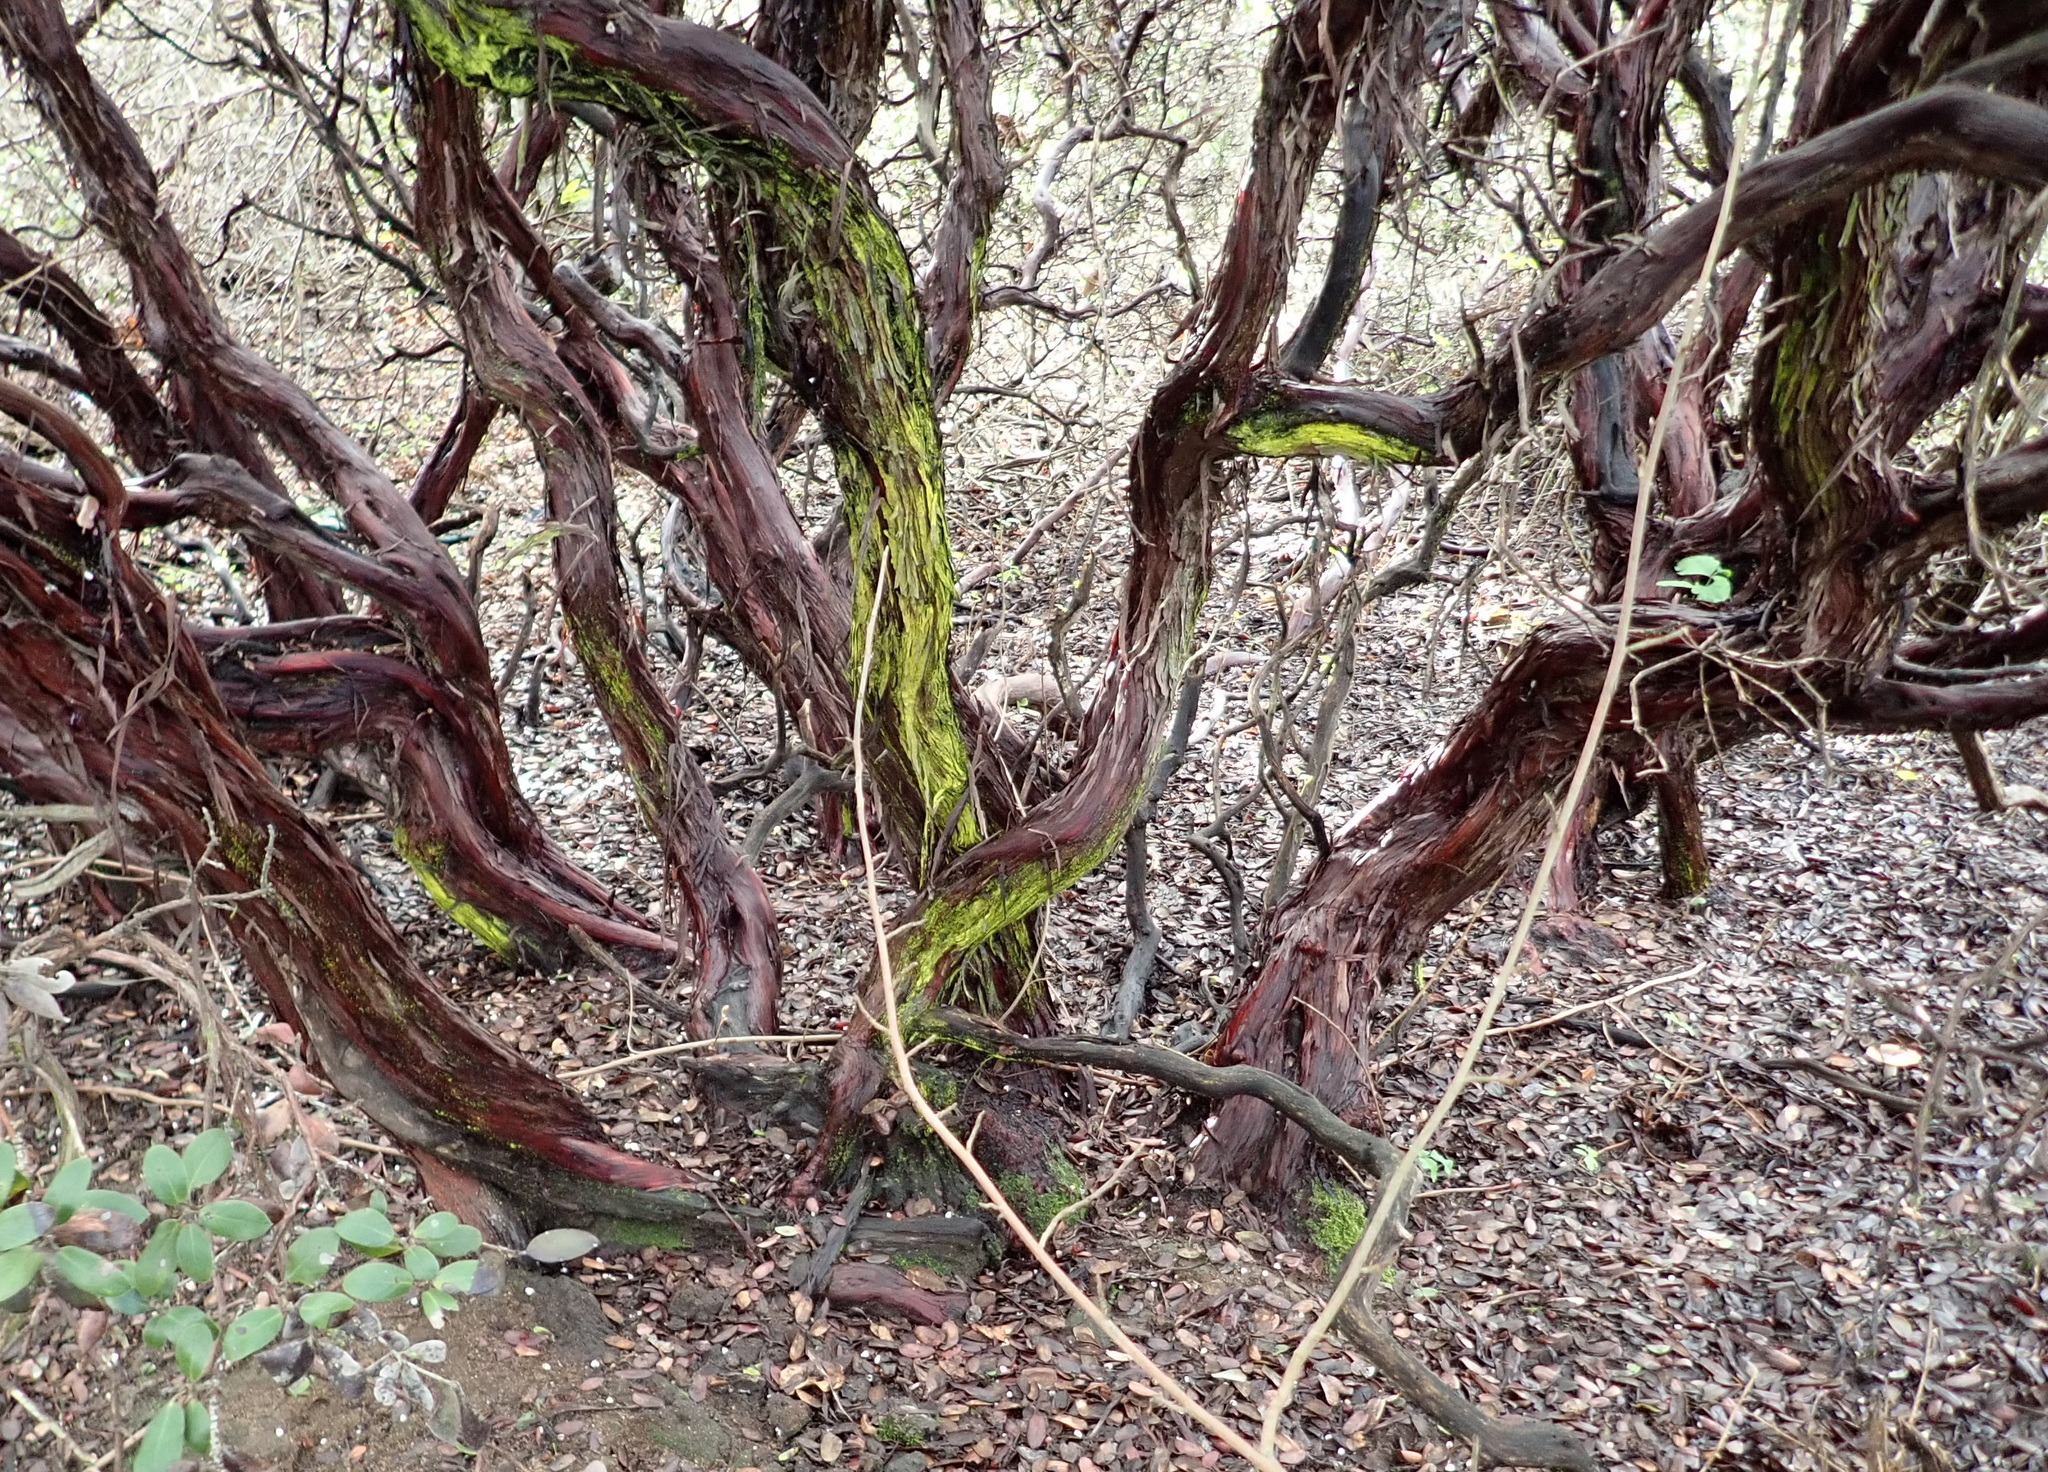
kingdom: Plantae
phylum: Tracheophyta
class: Magnoliopsida
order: Ericales
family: Ericaceae
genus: Arctostaphylos
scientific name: Arctostaphylos tomentosa
